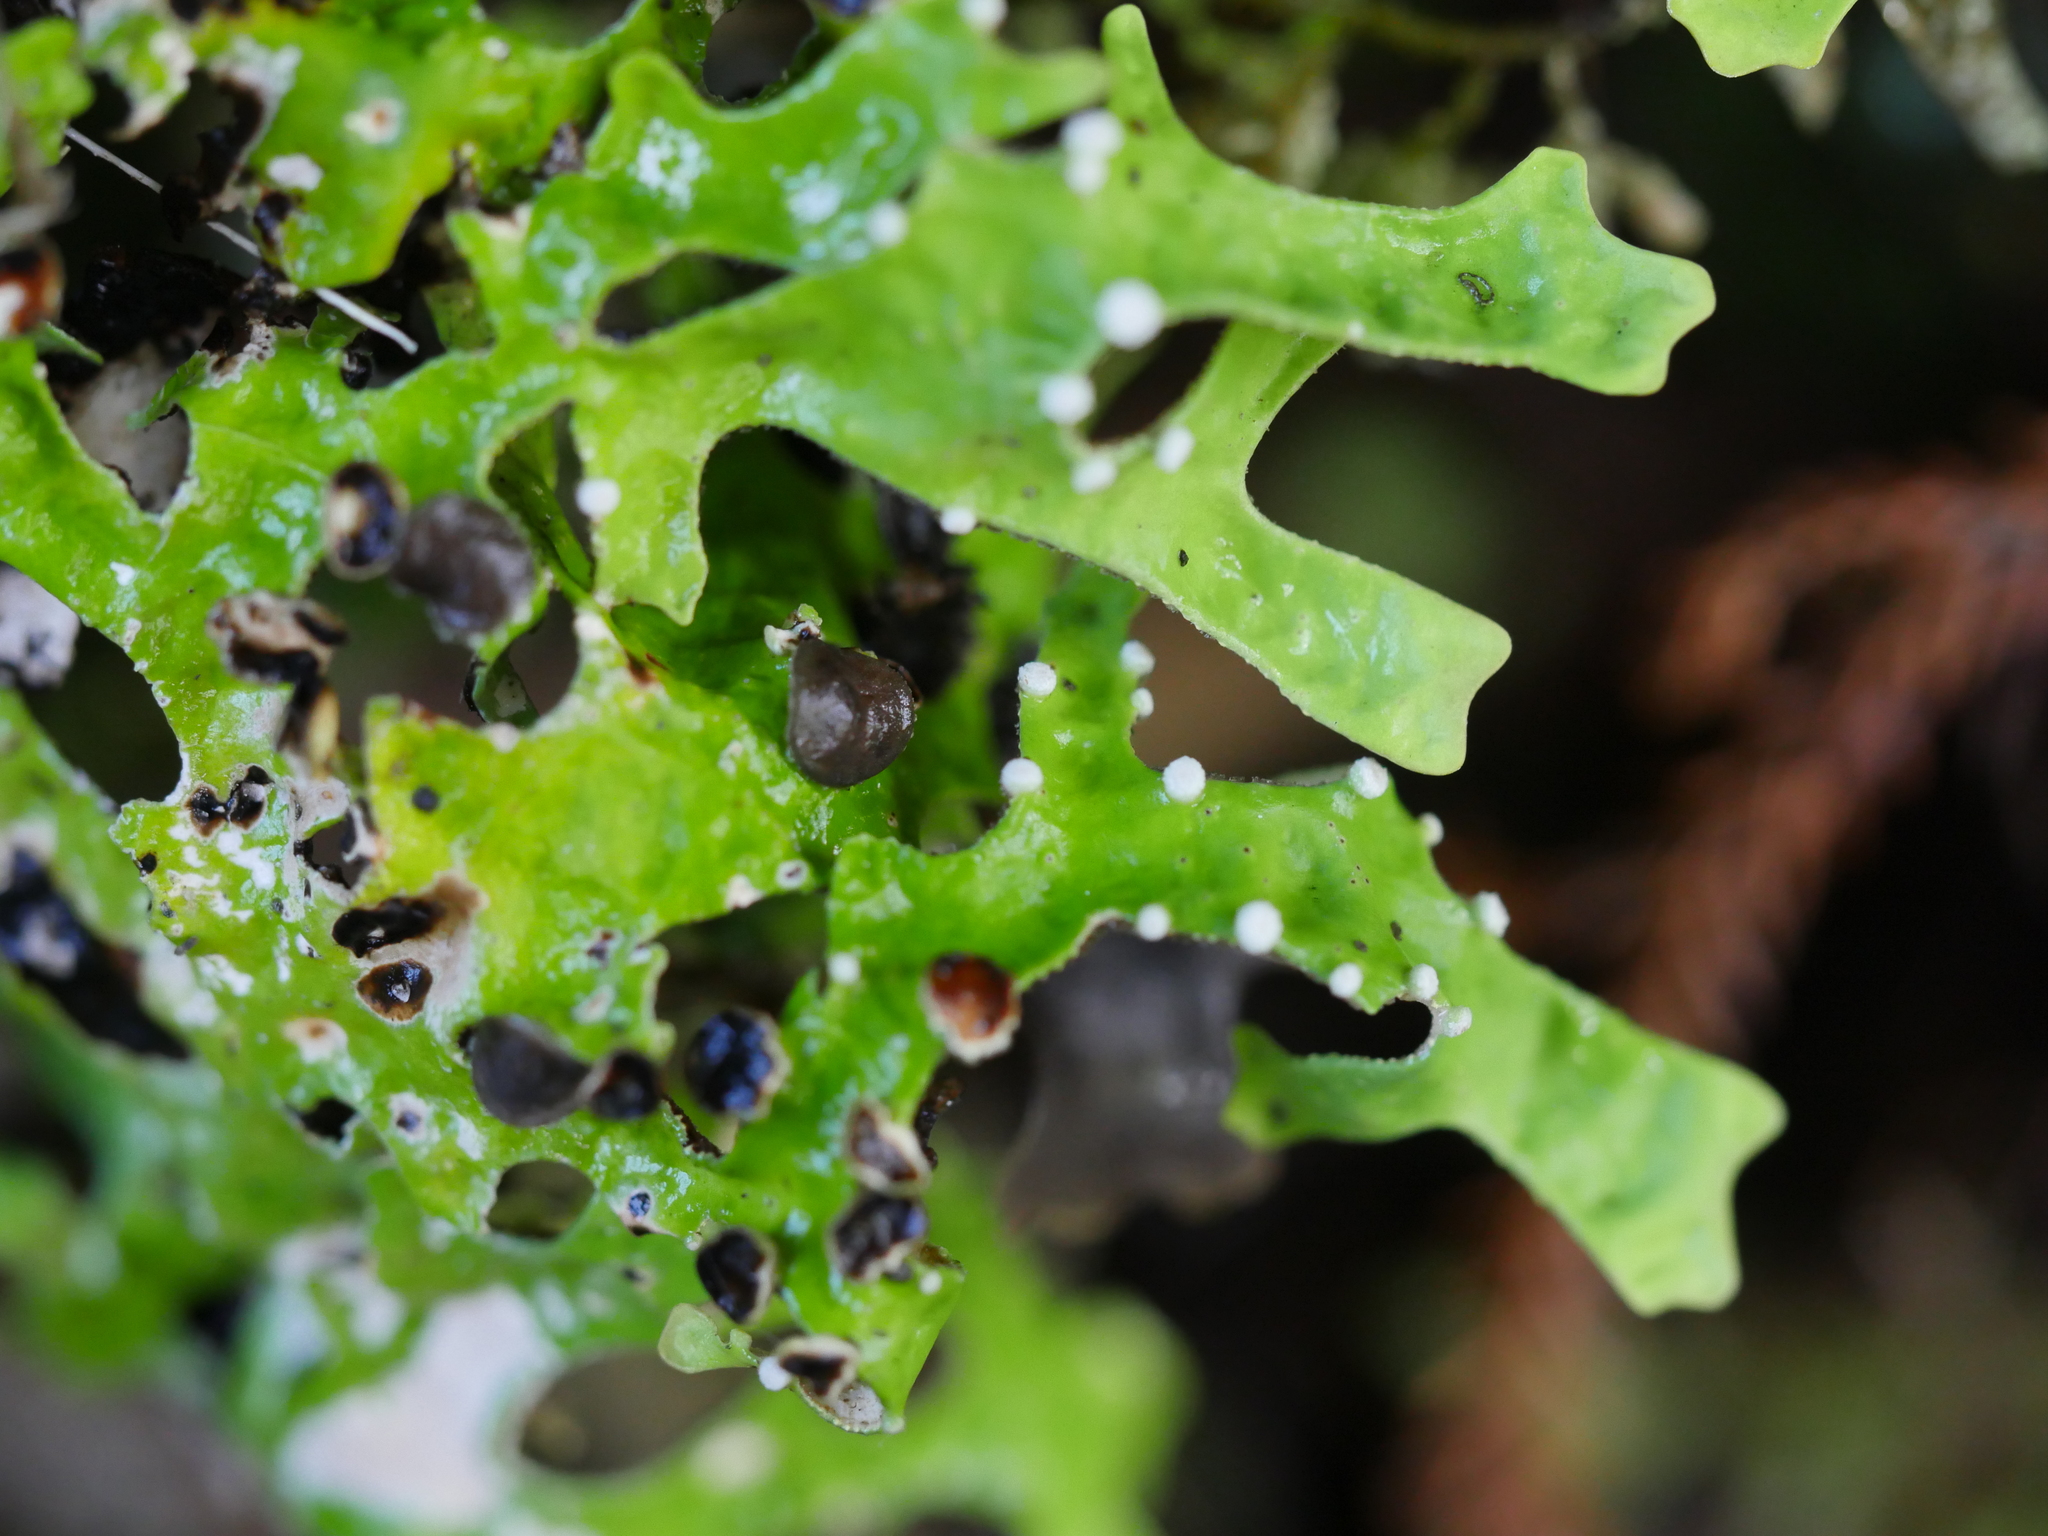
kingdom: Fungi
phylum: Ascomycota
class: Lecanoromycetes
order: Peltigerales
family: Lobariaceae
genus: Pseudocyphellaria
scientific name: Pseudocyphellaria faveolata
